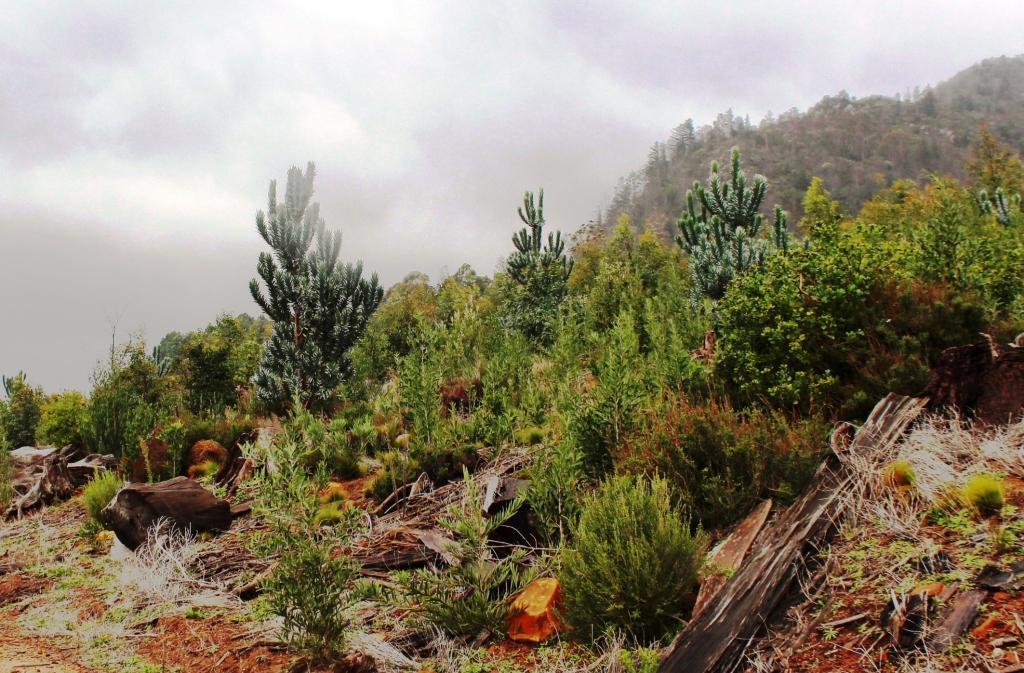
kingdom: Plantae
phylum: Tracheophyta
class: Magnoliopsida
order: Proteales
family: Proteaceae
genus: Leucadendron
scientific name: Leucadendron argenteum
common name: Cape silver tree
